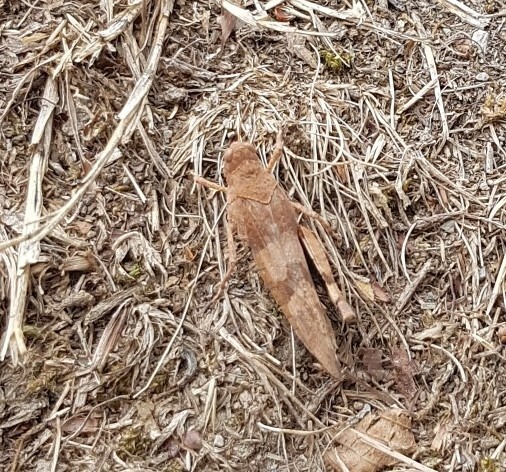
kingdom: Animalia
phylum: Arthropoda
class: Insecta
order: Orthoptera
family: Acrididae
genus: Oedipoda
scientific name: Oedipoda caerulescens
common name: Blue-winged grasshopper
